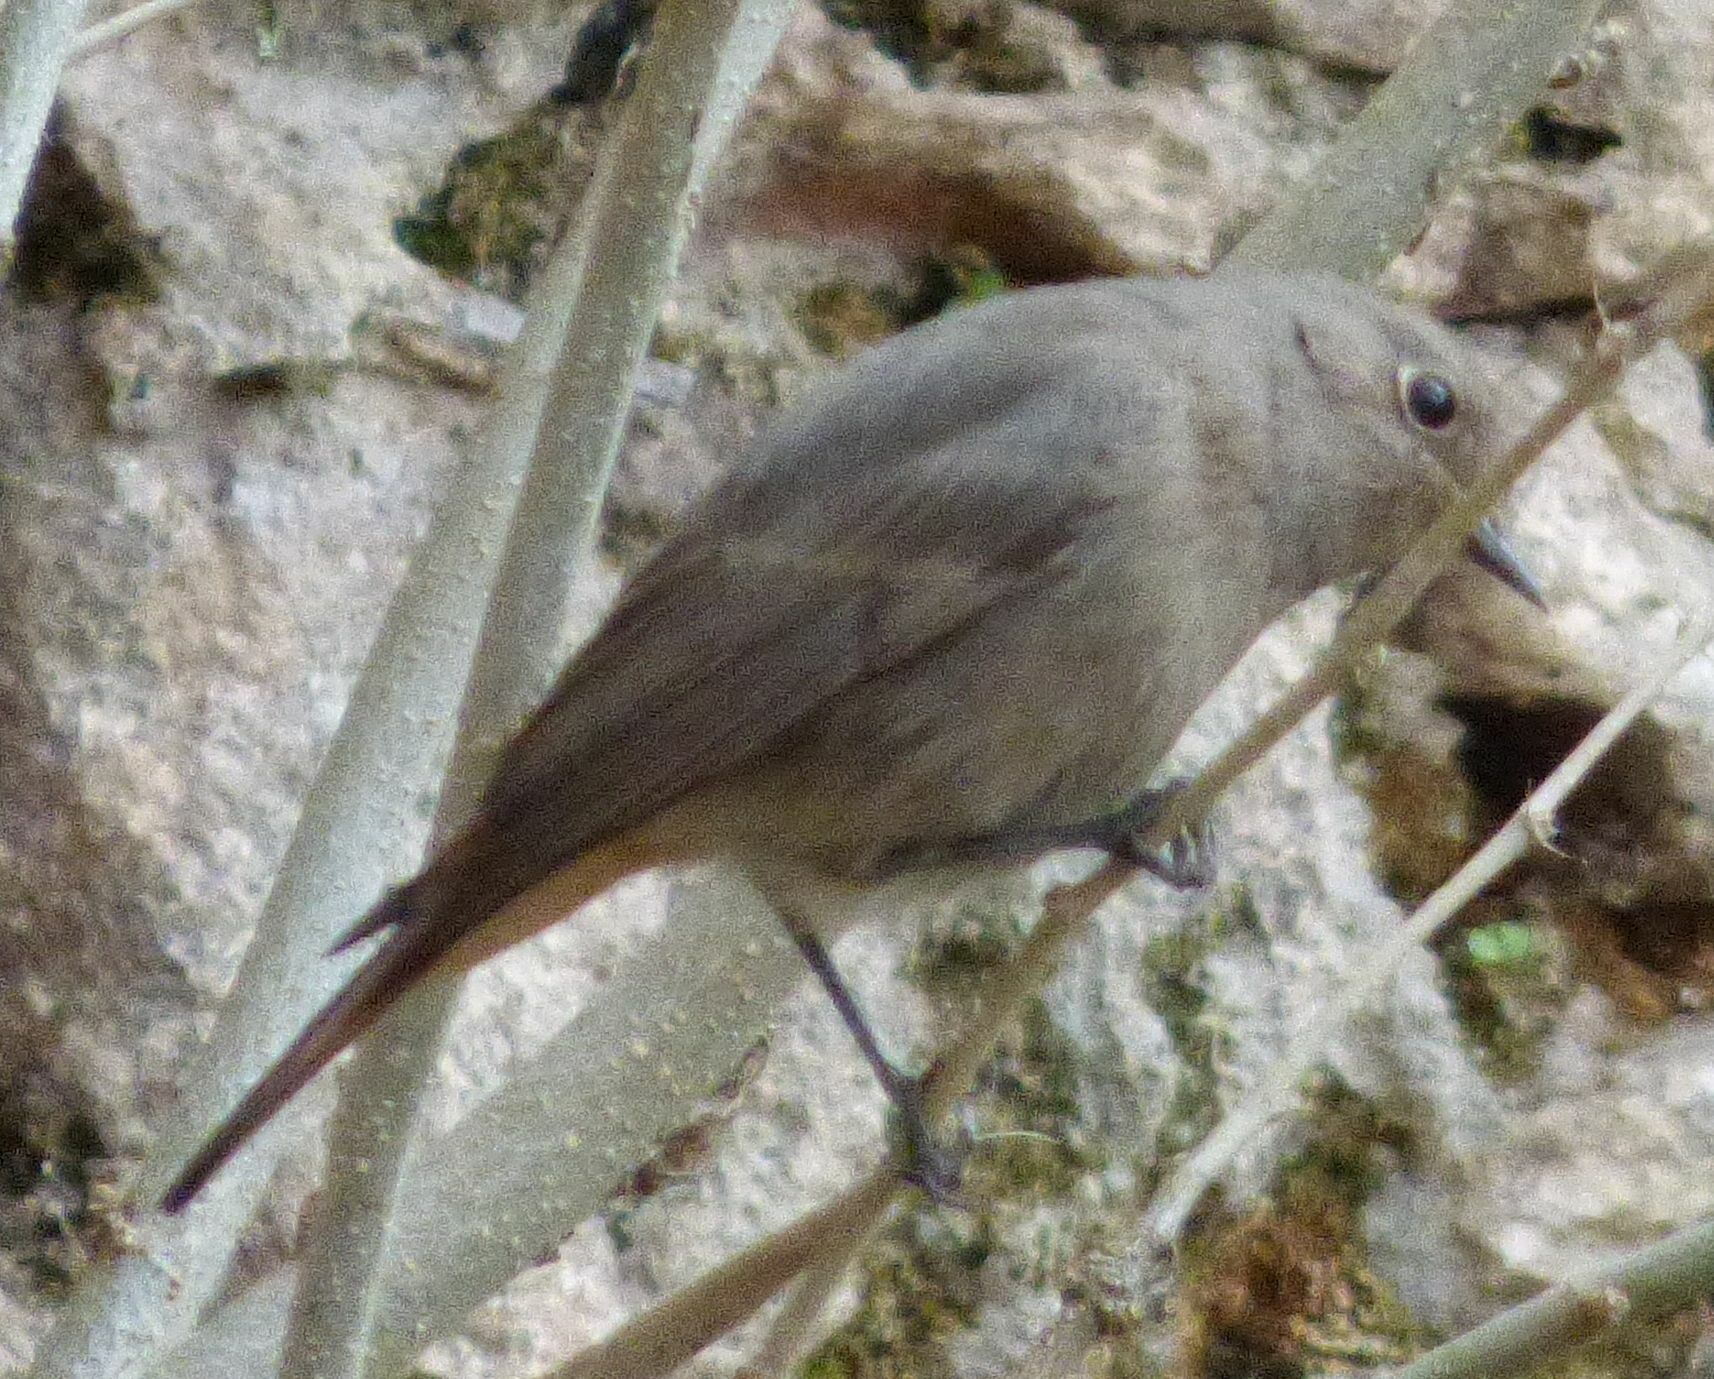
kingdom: Animalia
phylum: Chordata
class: Aves
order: Passeriformes
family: Muscicapidae
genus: Phoenicurus
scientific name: Phoenicurus ochruros
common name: Black redstart
